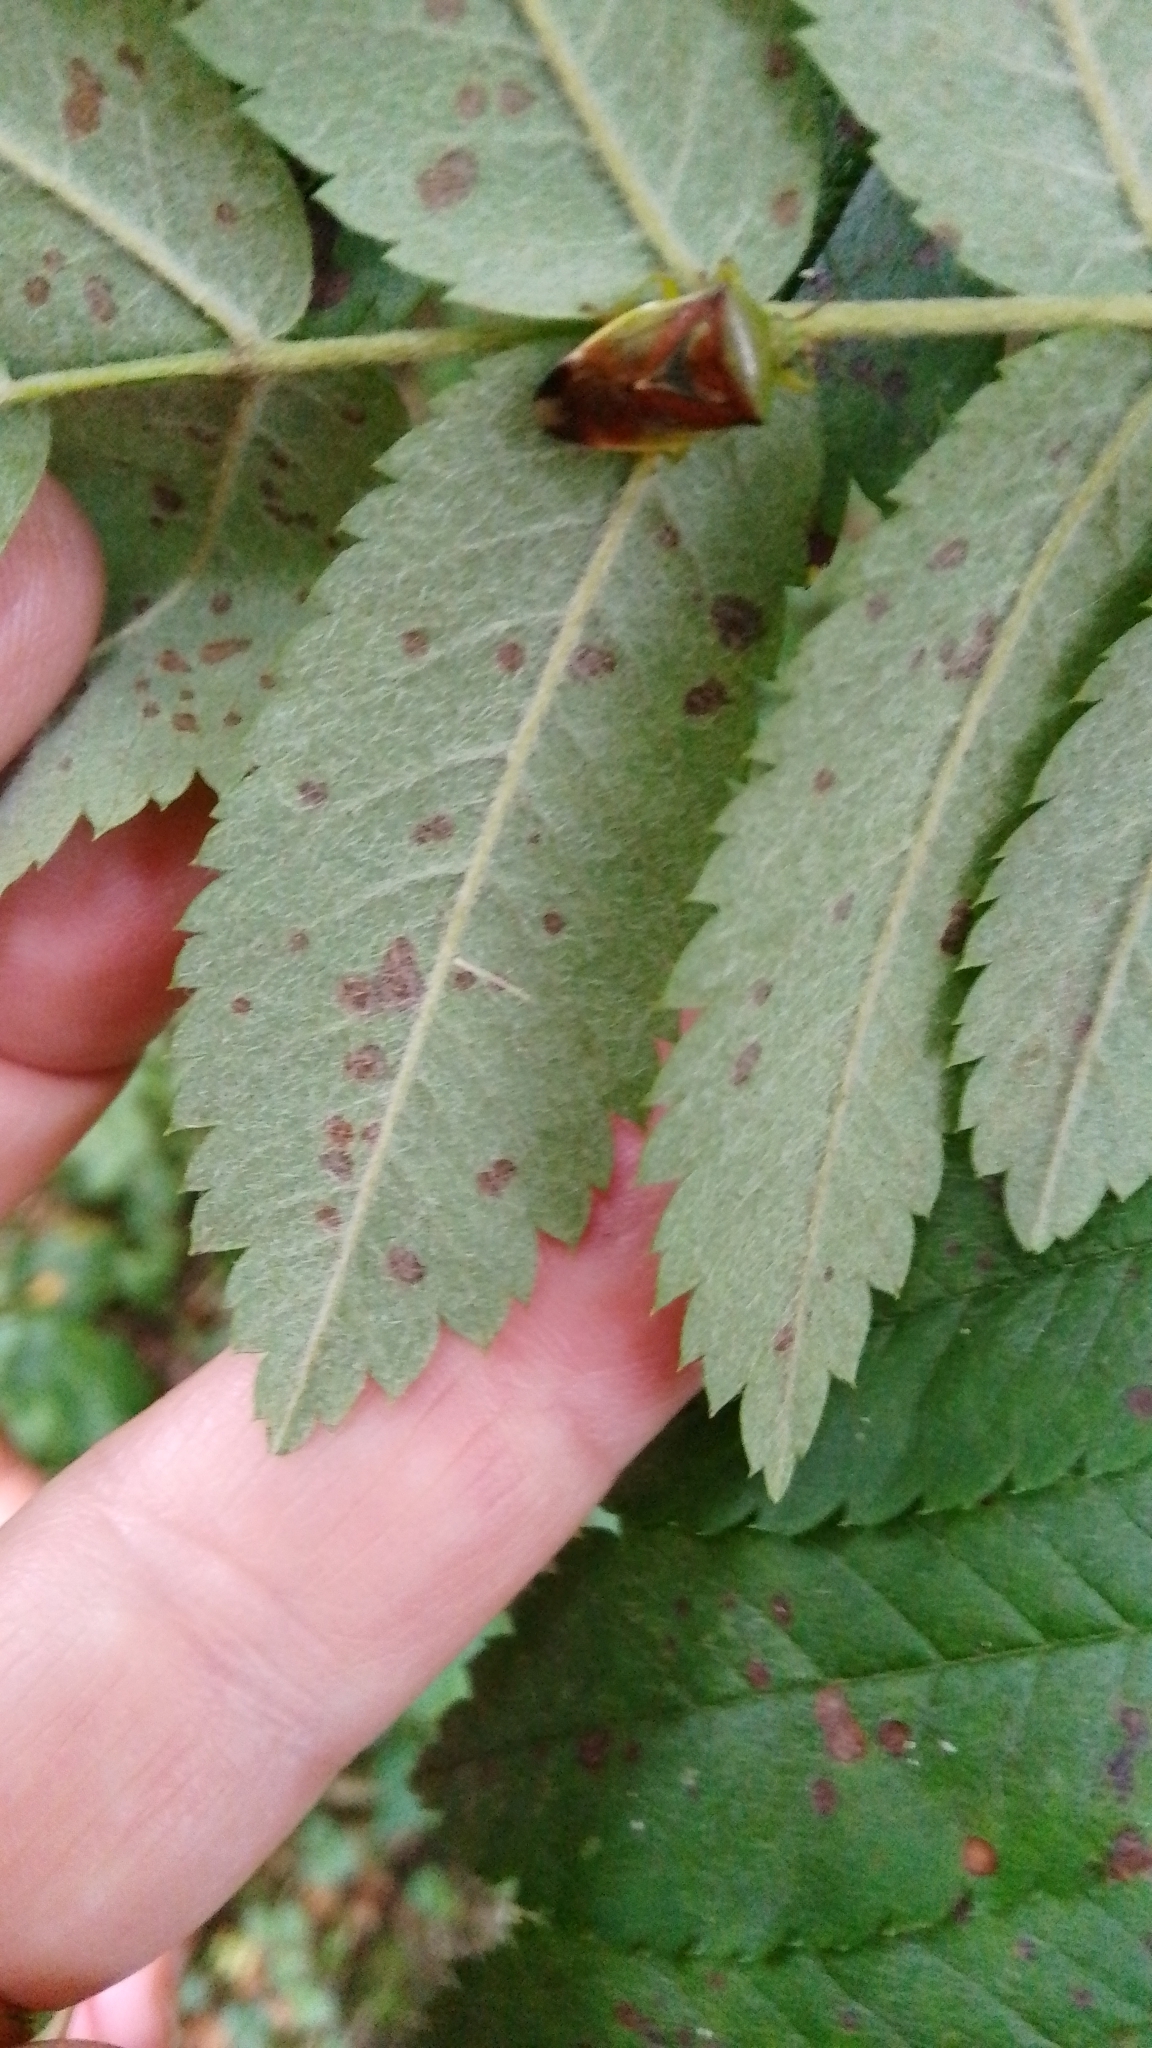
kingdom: Animalia
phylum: Arthropoda
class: Insecta
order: Hemiptera
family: Acanthosomatidae
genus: Elasmostethus
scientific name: Elasmostethus interstinctus
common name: Birch shieldbug
